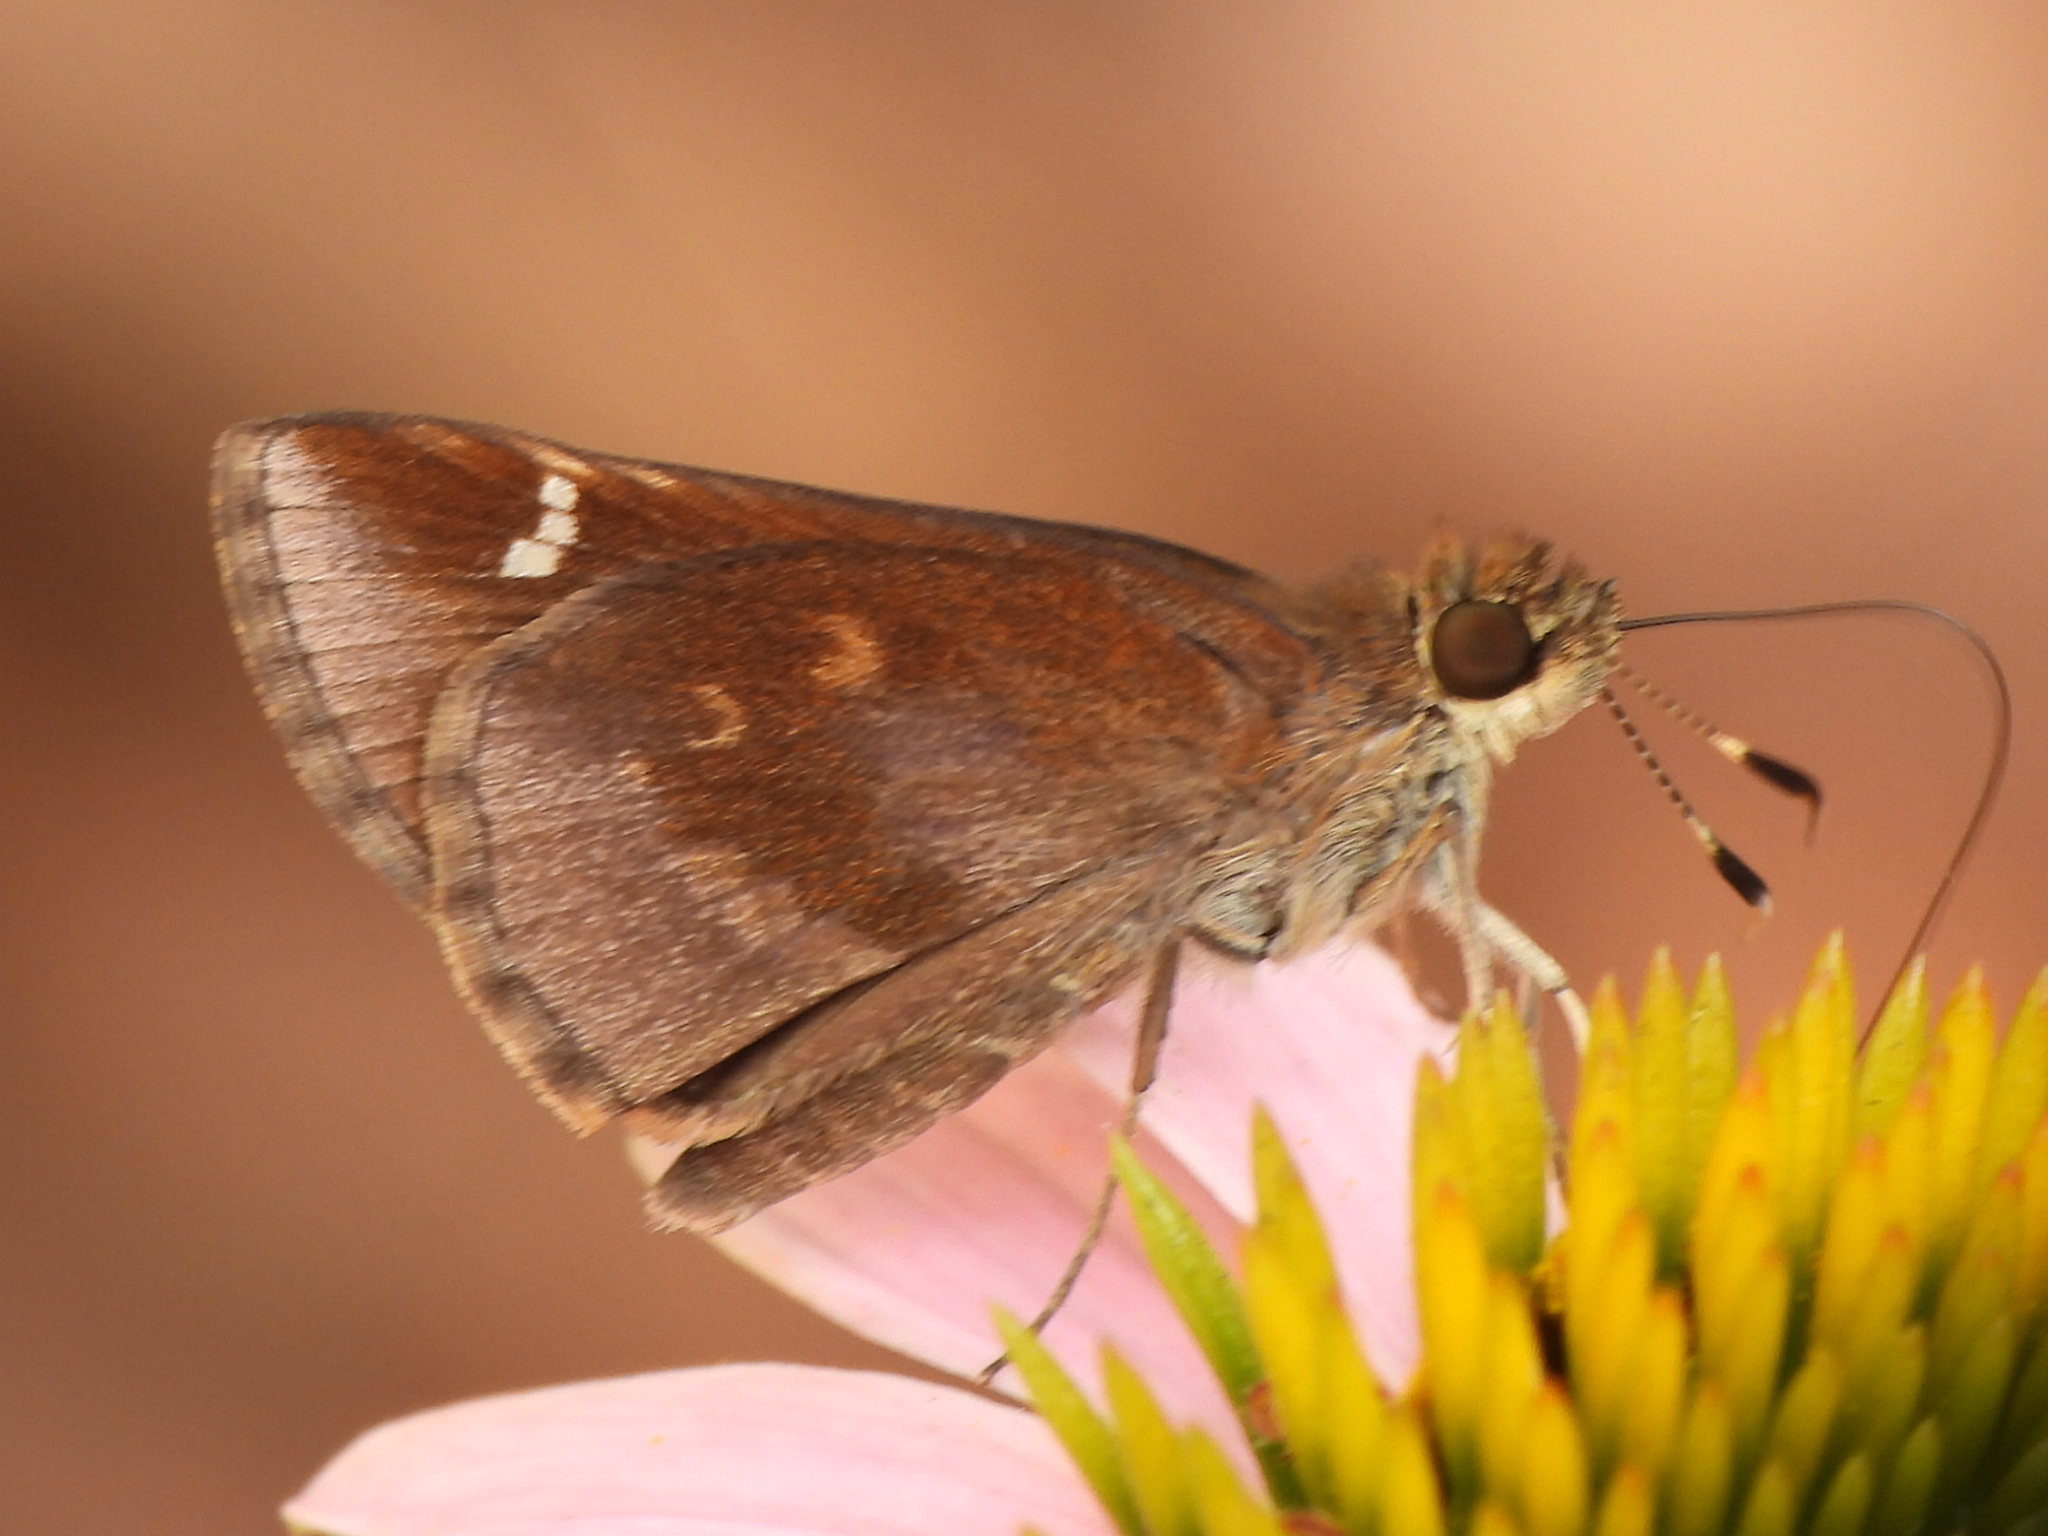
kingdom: Animalia
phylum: Arthropoda
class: Insecta
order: Lepidoptera
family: Hesperiidae
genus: Lerema
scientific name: Lerema accius
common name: Clouded skipper
